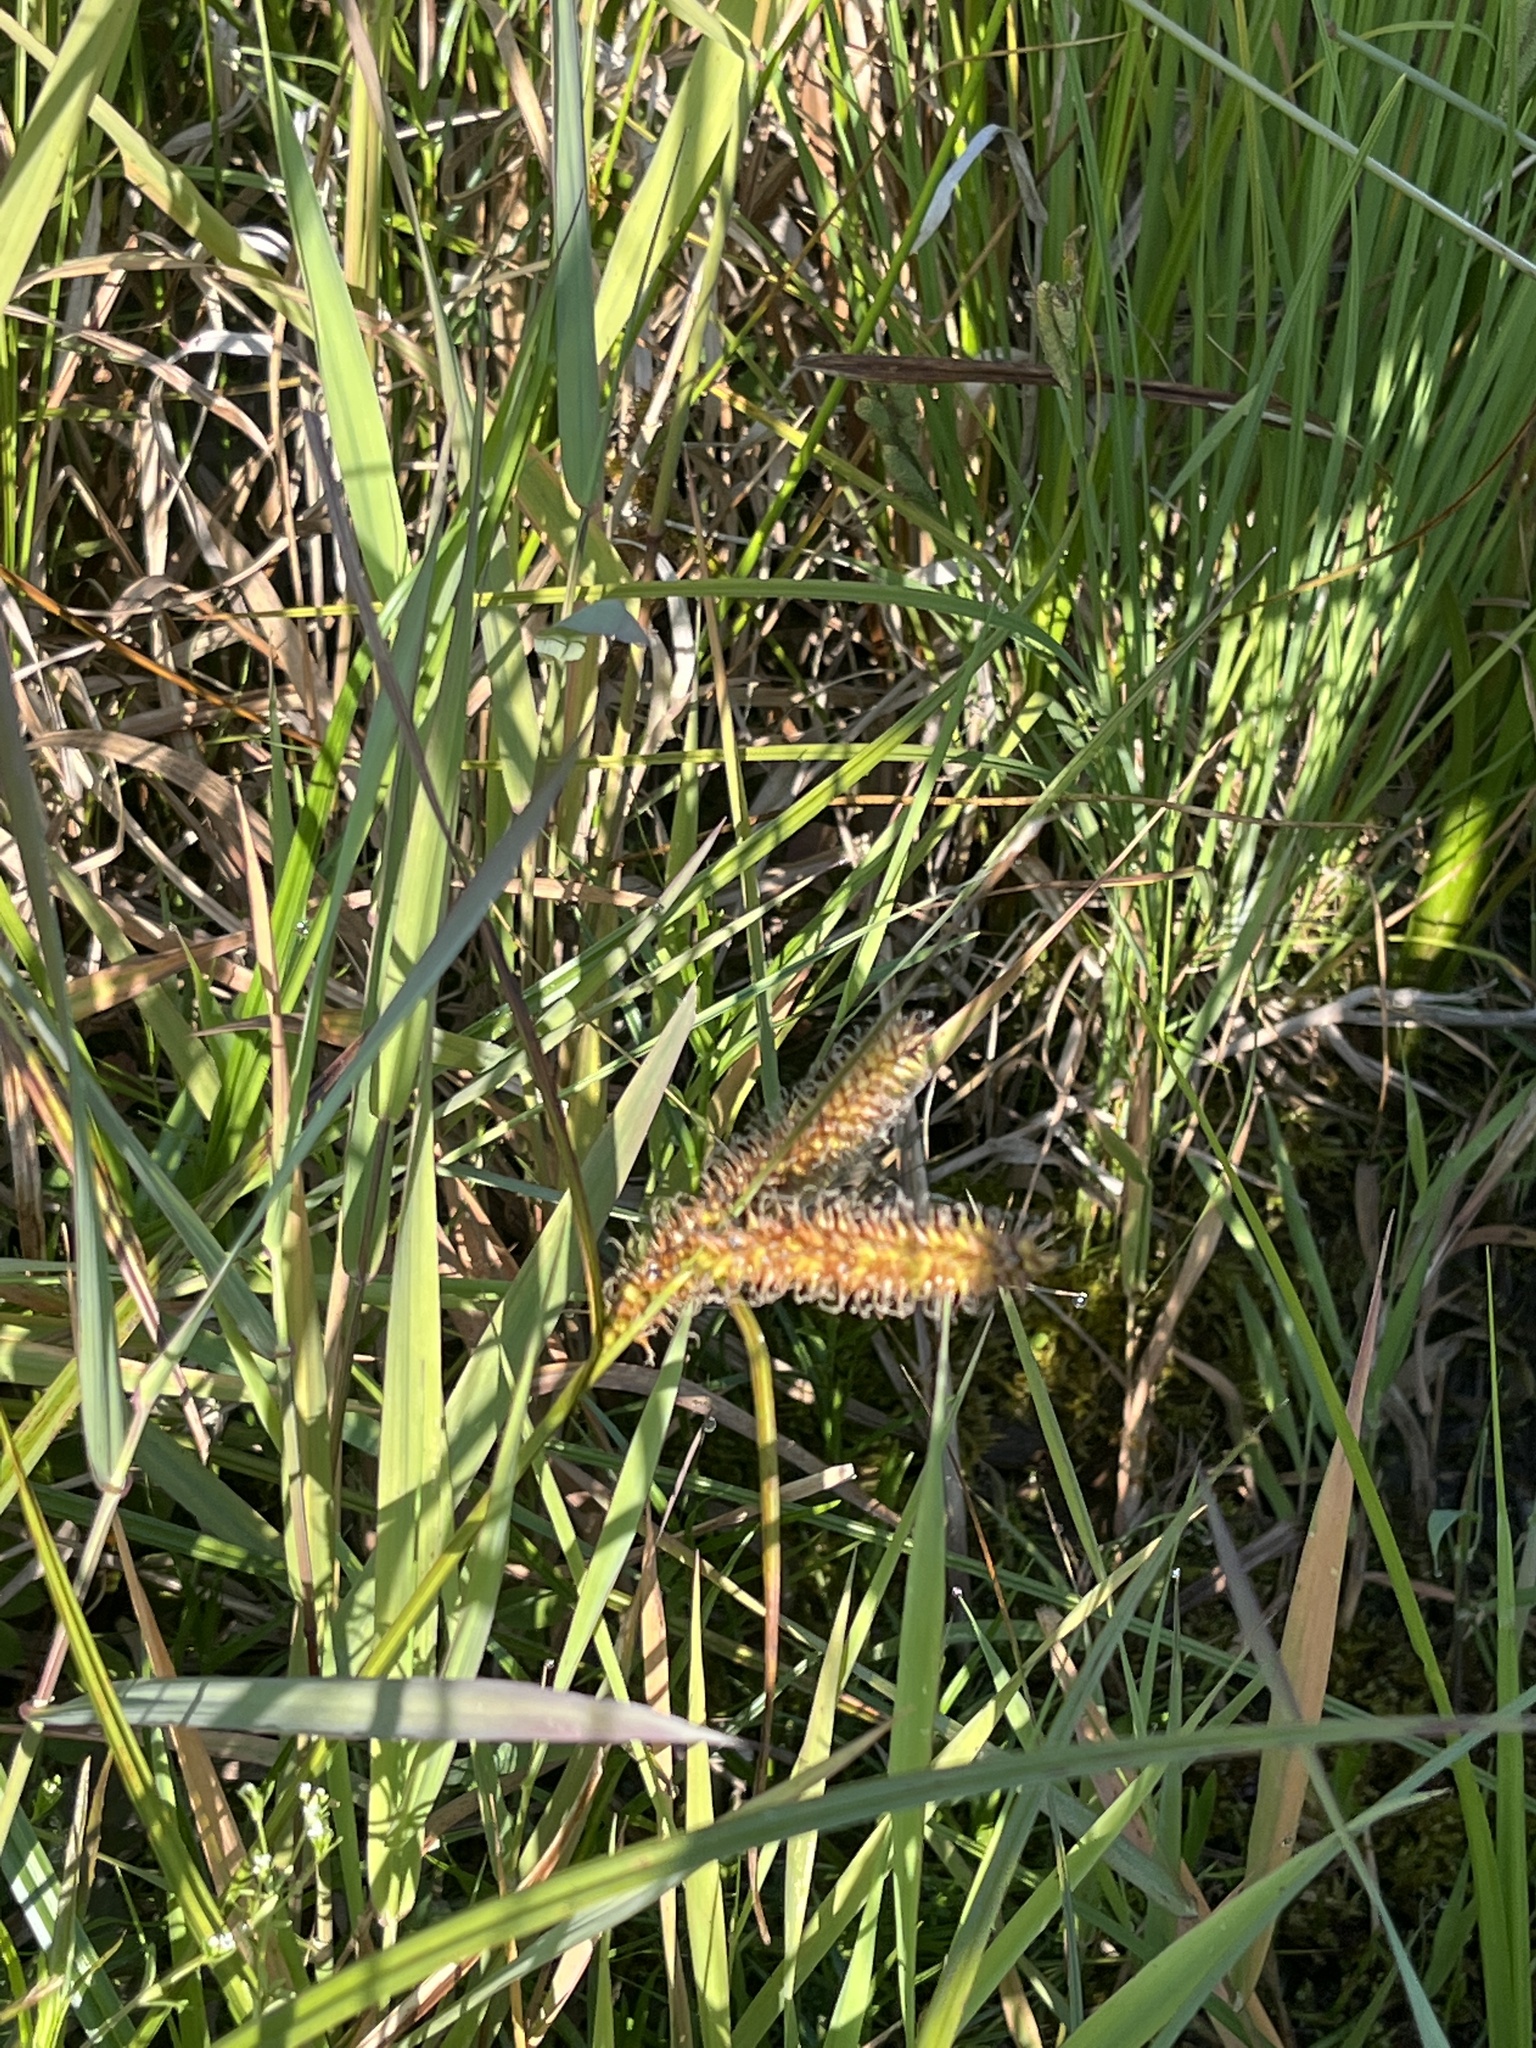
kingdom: Plantae
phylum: Tracheophyta
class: Liliopsida
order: Poales
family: Cyperaceae
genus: Carex
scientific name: Carex utriculata
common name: Beaked sedge
